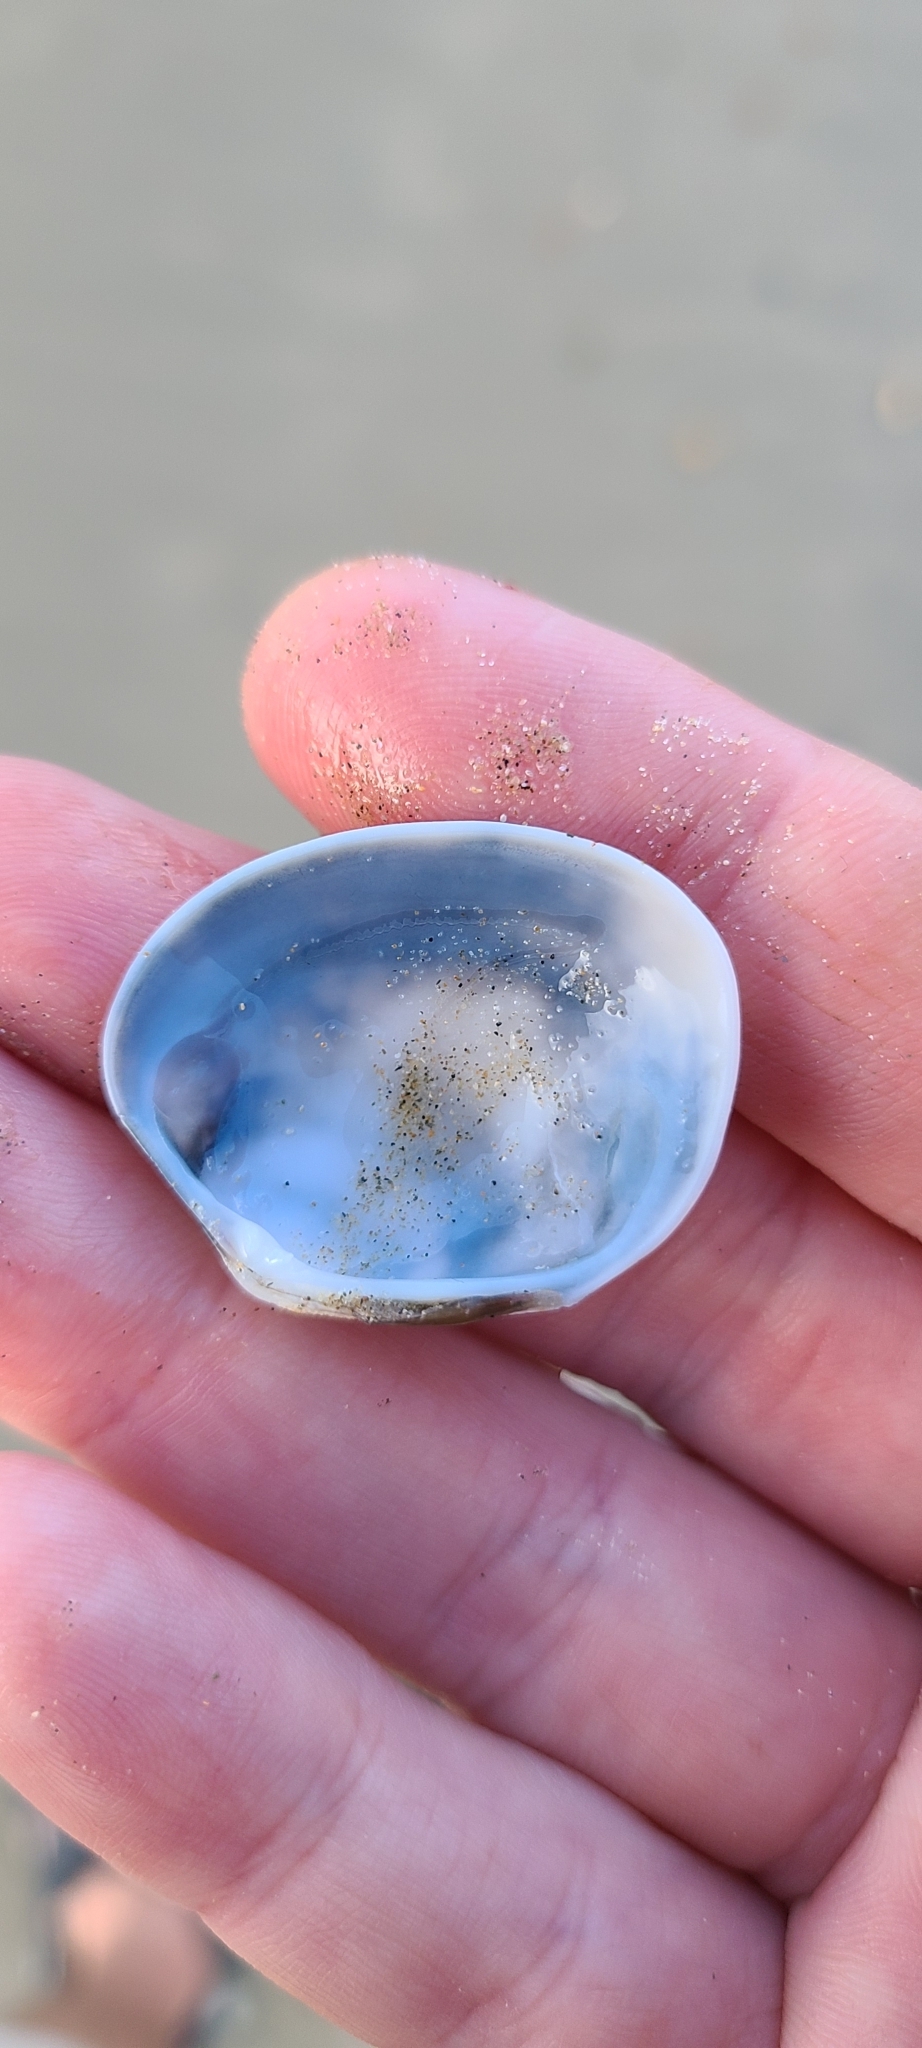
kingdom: Animalia
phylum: Mollusca
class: Bivalvia
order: Venerida
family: Veneridae
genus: Venerupis
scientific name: Venerupis largillierti
